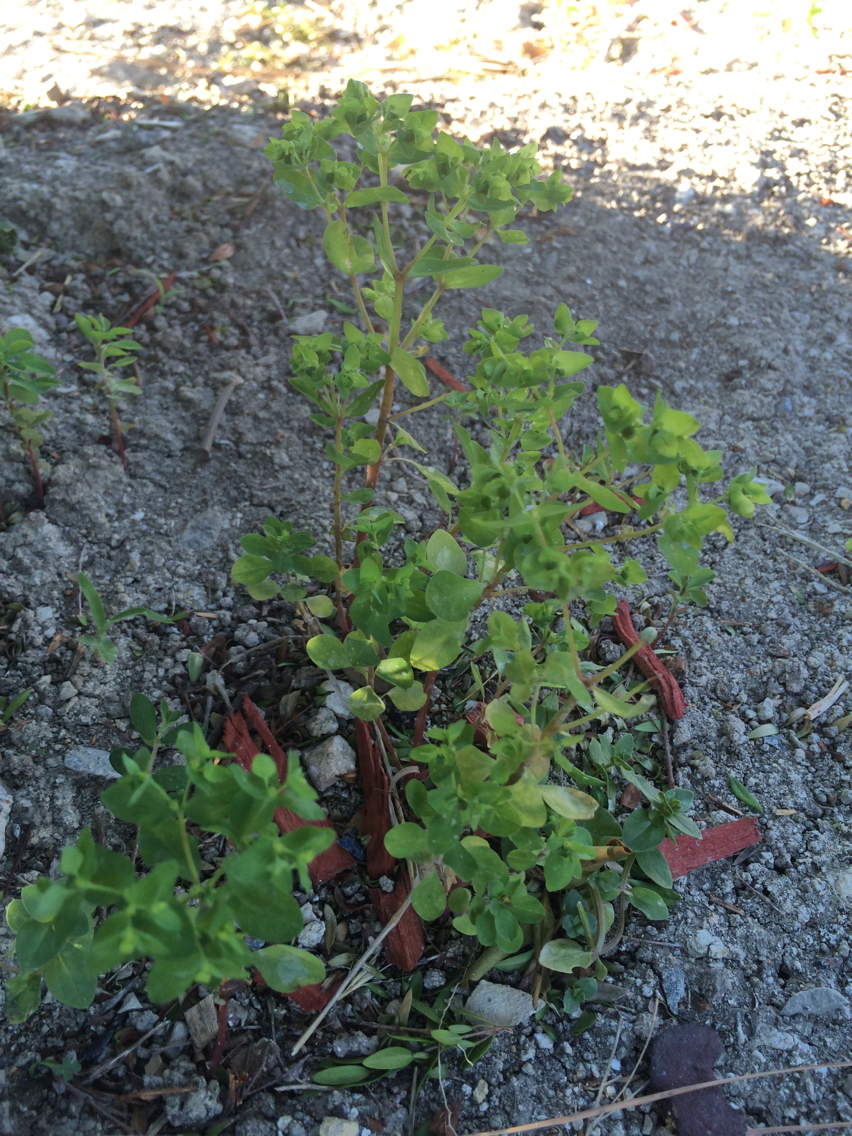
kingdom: Plantae
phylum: Tracheophyta
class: Magnoliopsida
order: Malpighiales
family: Euphorbiaceae
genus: Euphorbia
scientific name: Euphorbia peplus
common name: Petty spurge
